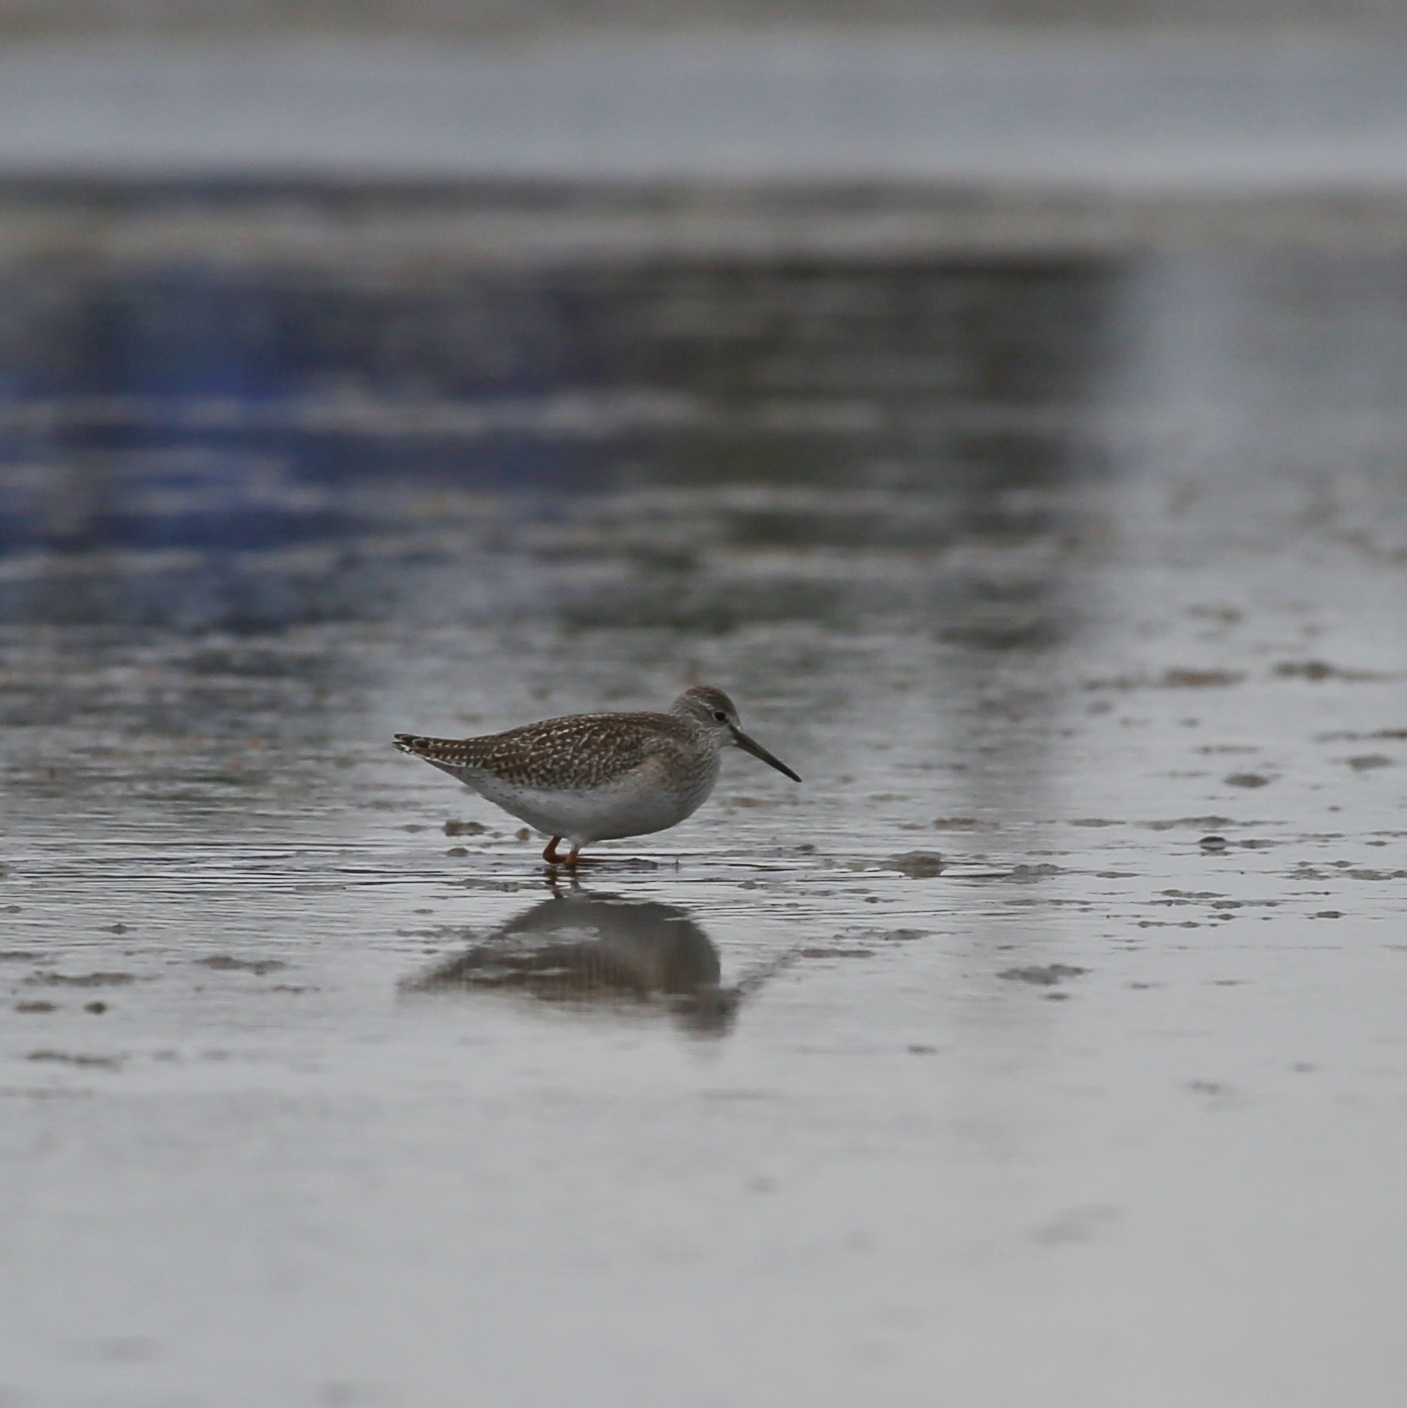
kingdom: Animalia
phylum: Chordata
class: Aves
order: Charadriiformes
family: Scolopacidae
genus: Tringa
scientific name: Tringa totanus
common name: Common redshank
